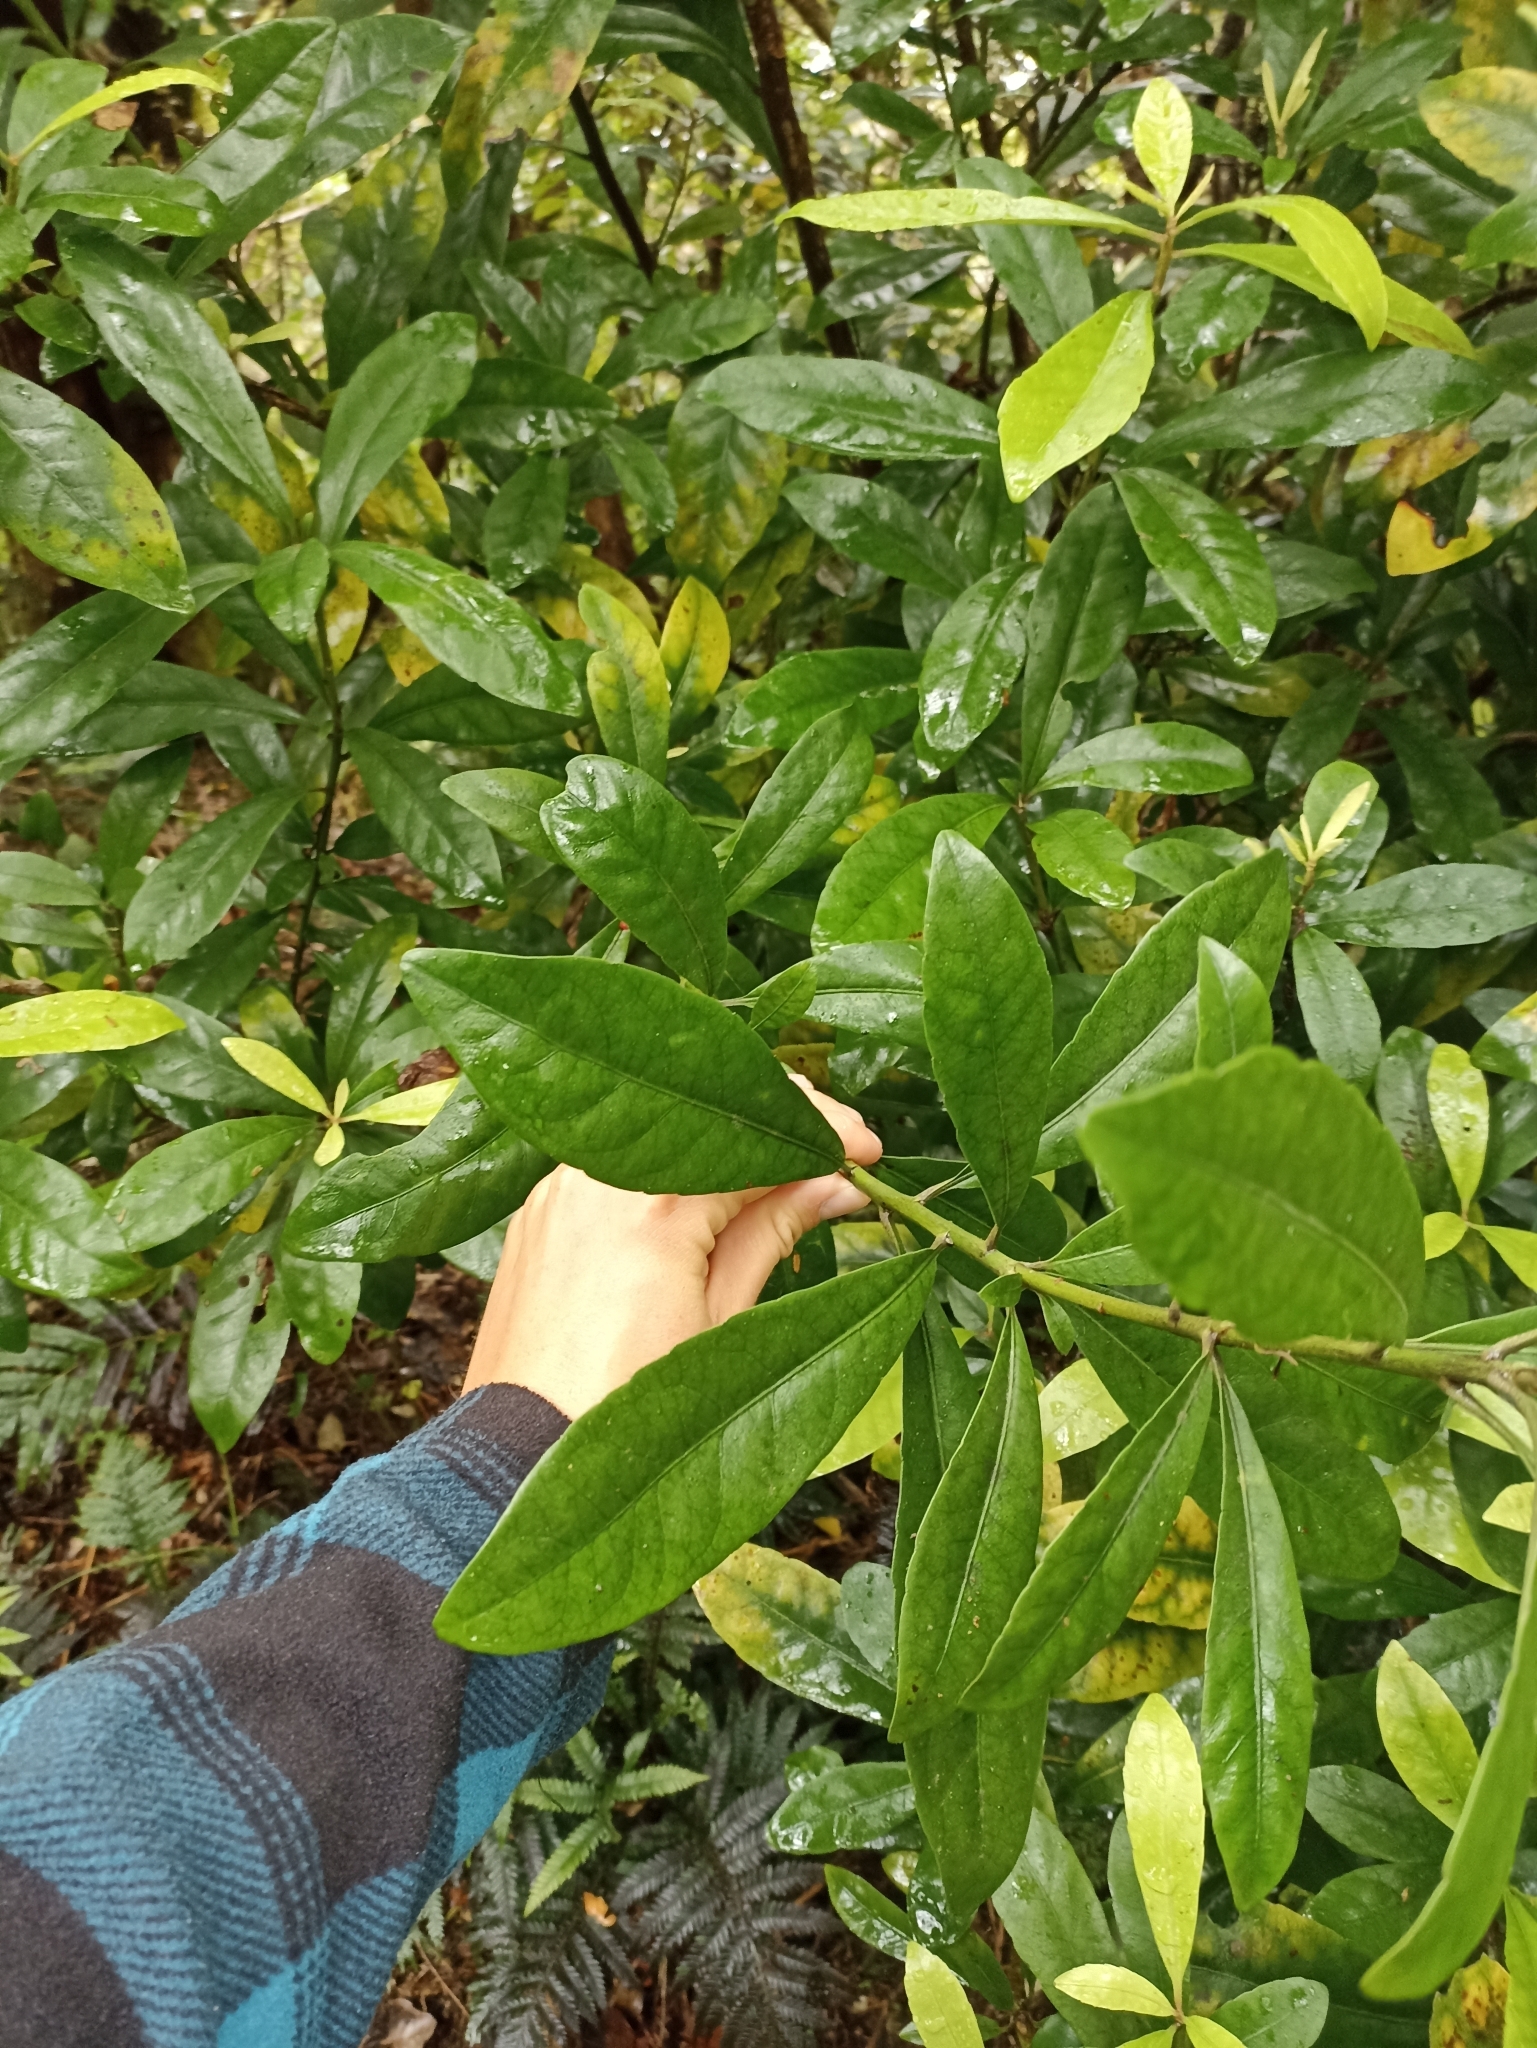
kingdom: Plantae
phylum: Tracheophyta
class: Magnoliopsida
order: Asterales
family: Alseuosmiaceae
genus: Alseuosmia
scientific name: Alseuosmia macrophylla
